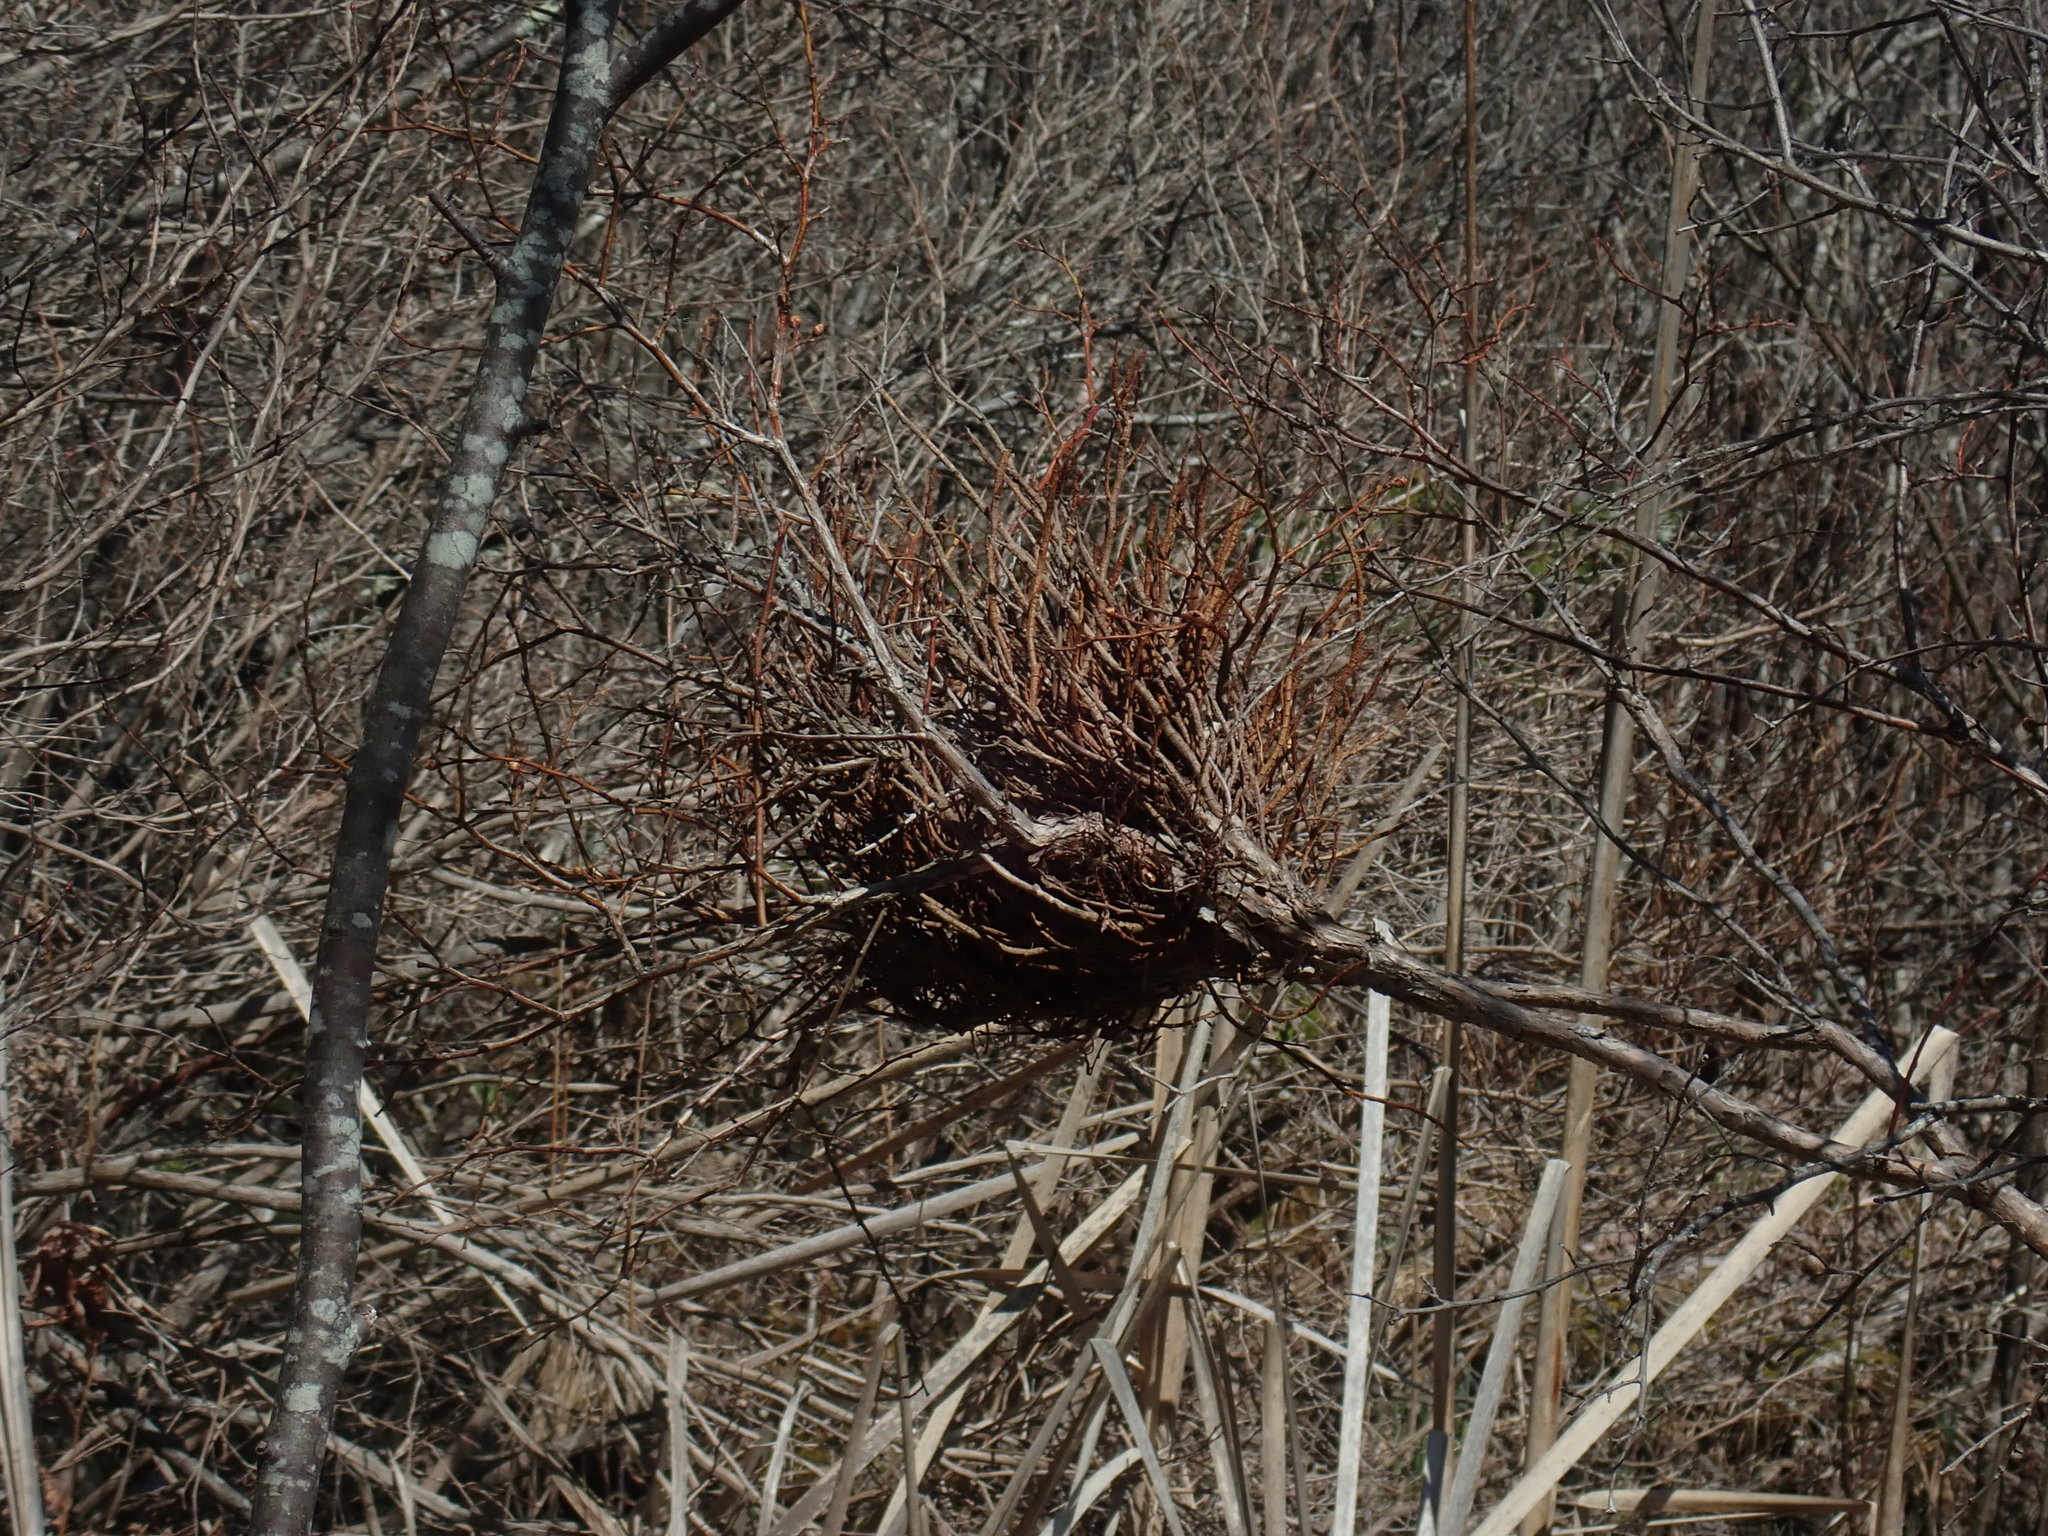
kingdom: Fungi
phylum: Basidiomycota
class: Pucciniomycetes
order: Pucciniales
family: Pucciniastraceae
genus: Calyptospora
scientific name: Calyptospora columnaris
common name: Huckleberry broom rust fungus
